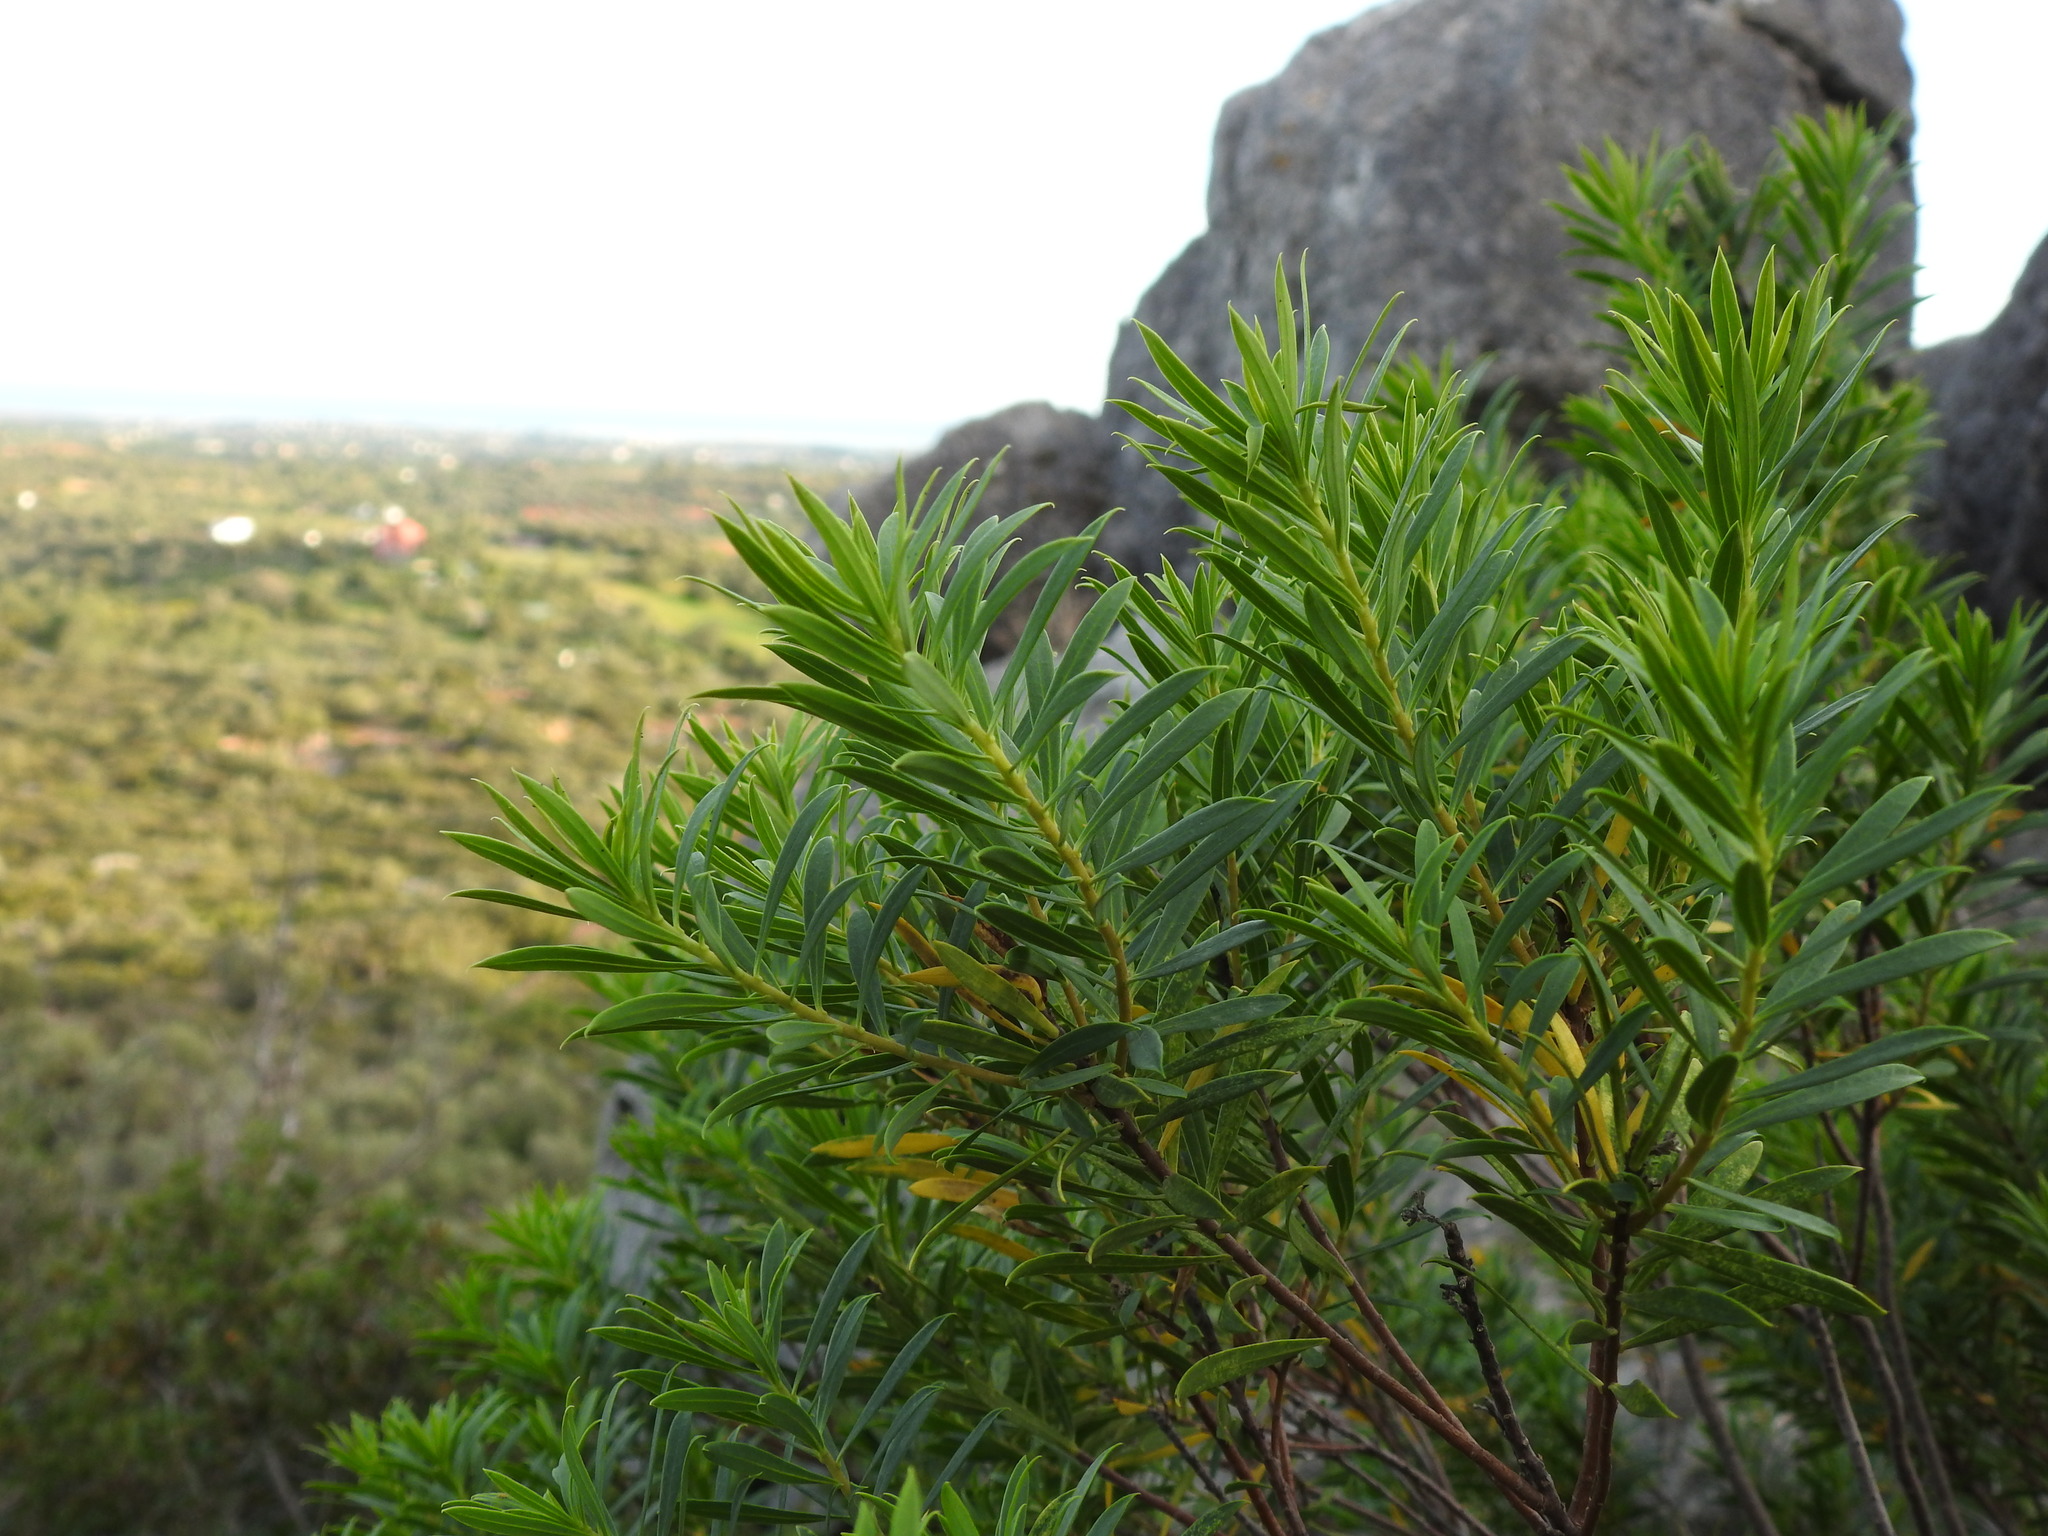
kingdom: Plantae
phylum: Tracheophyta
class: Magnoliopsida
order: Malvales
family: Thymelaeaceae
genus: Daphne
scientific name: Daphne gnidium
